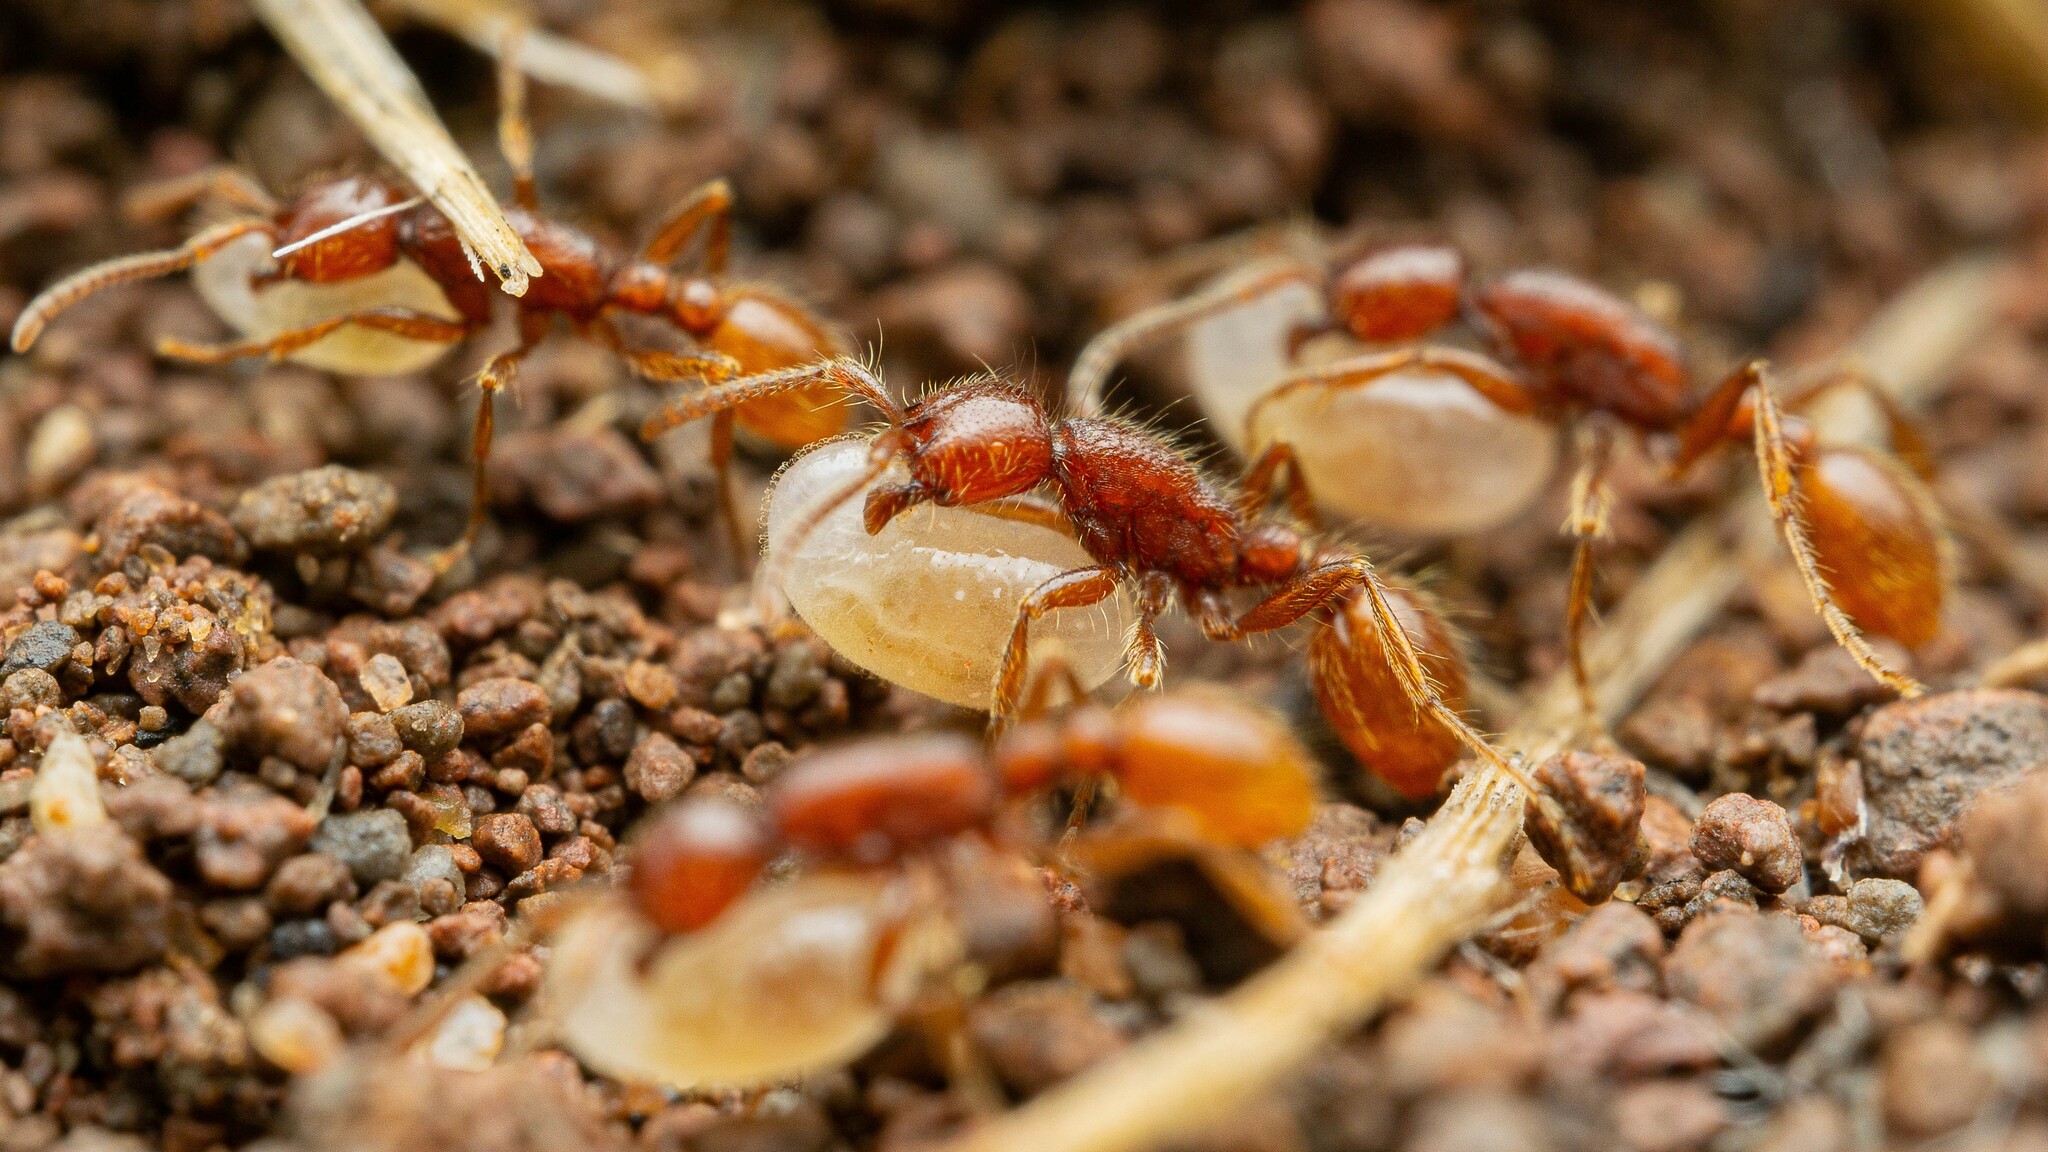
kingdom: Animalia
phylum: Arthropoda
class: Insecta
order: Hymenoptera
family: Formicidae
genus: Neivamyrmex
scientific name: Neivamyrmex harrisii
